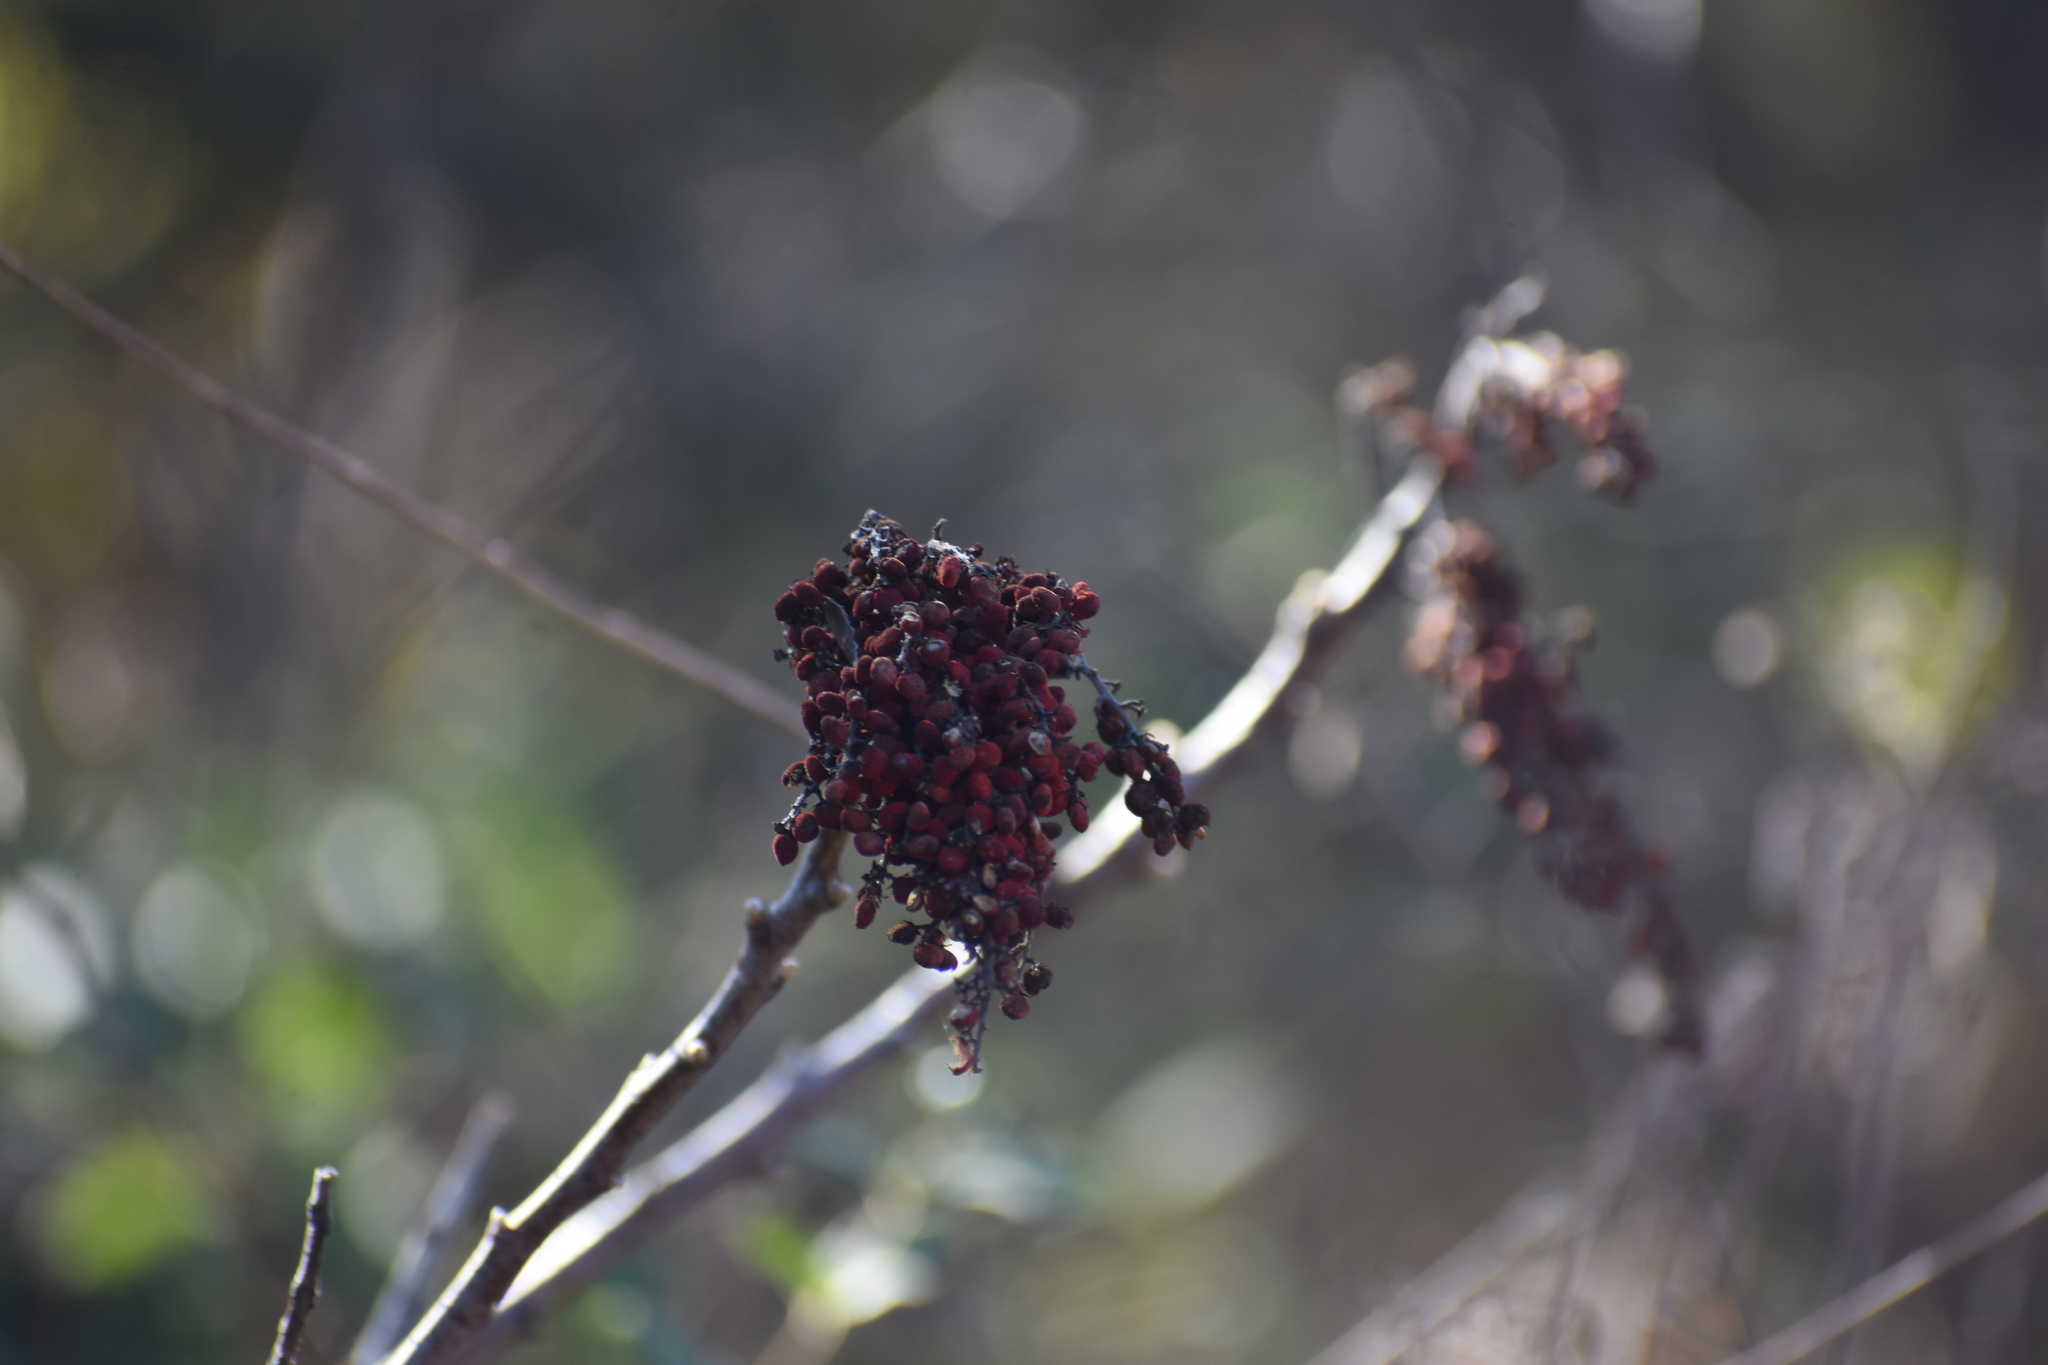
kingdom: Plantae
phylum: Tracheophyta
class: Magnoliopsida
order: Sapindales
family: Anacardiaceae
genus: Rhus
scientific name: Rhus
